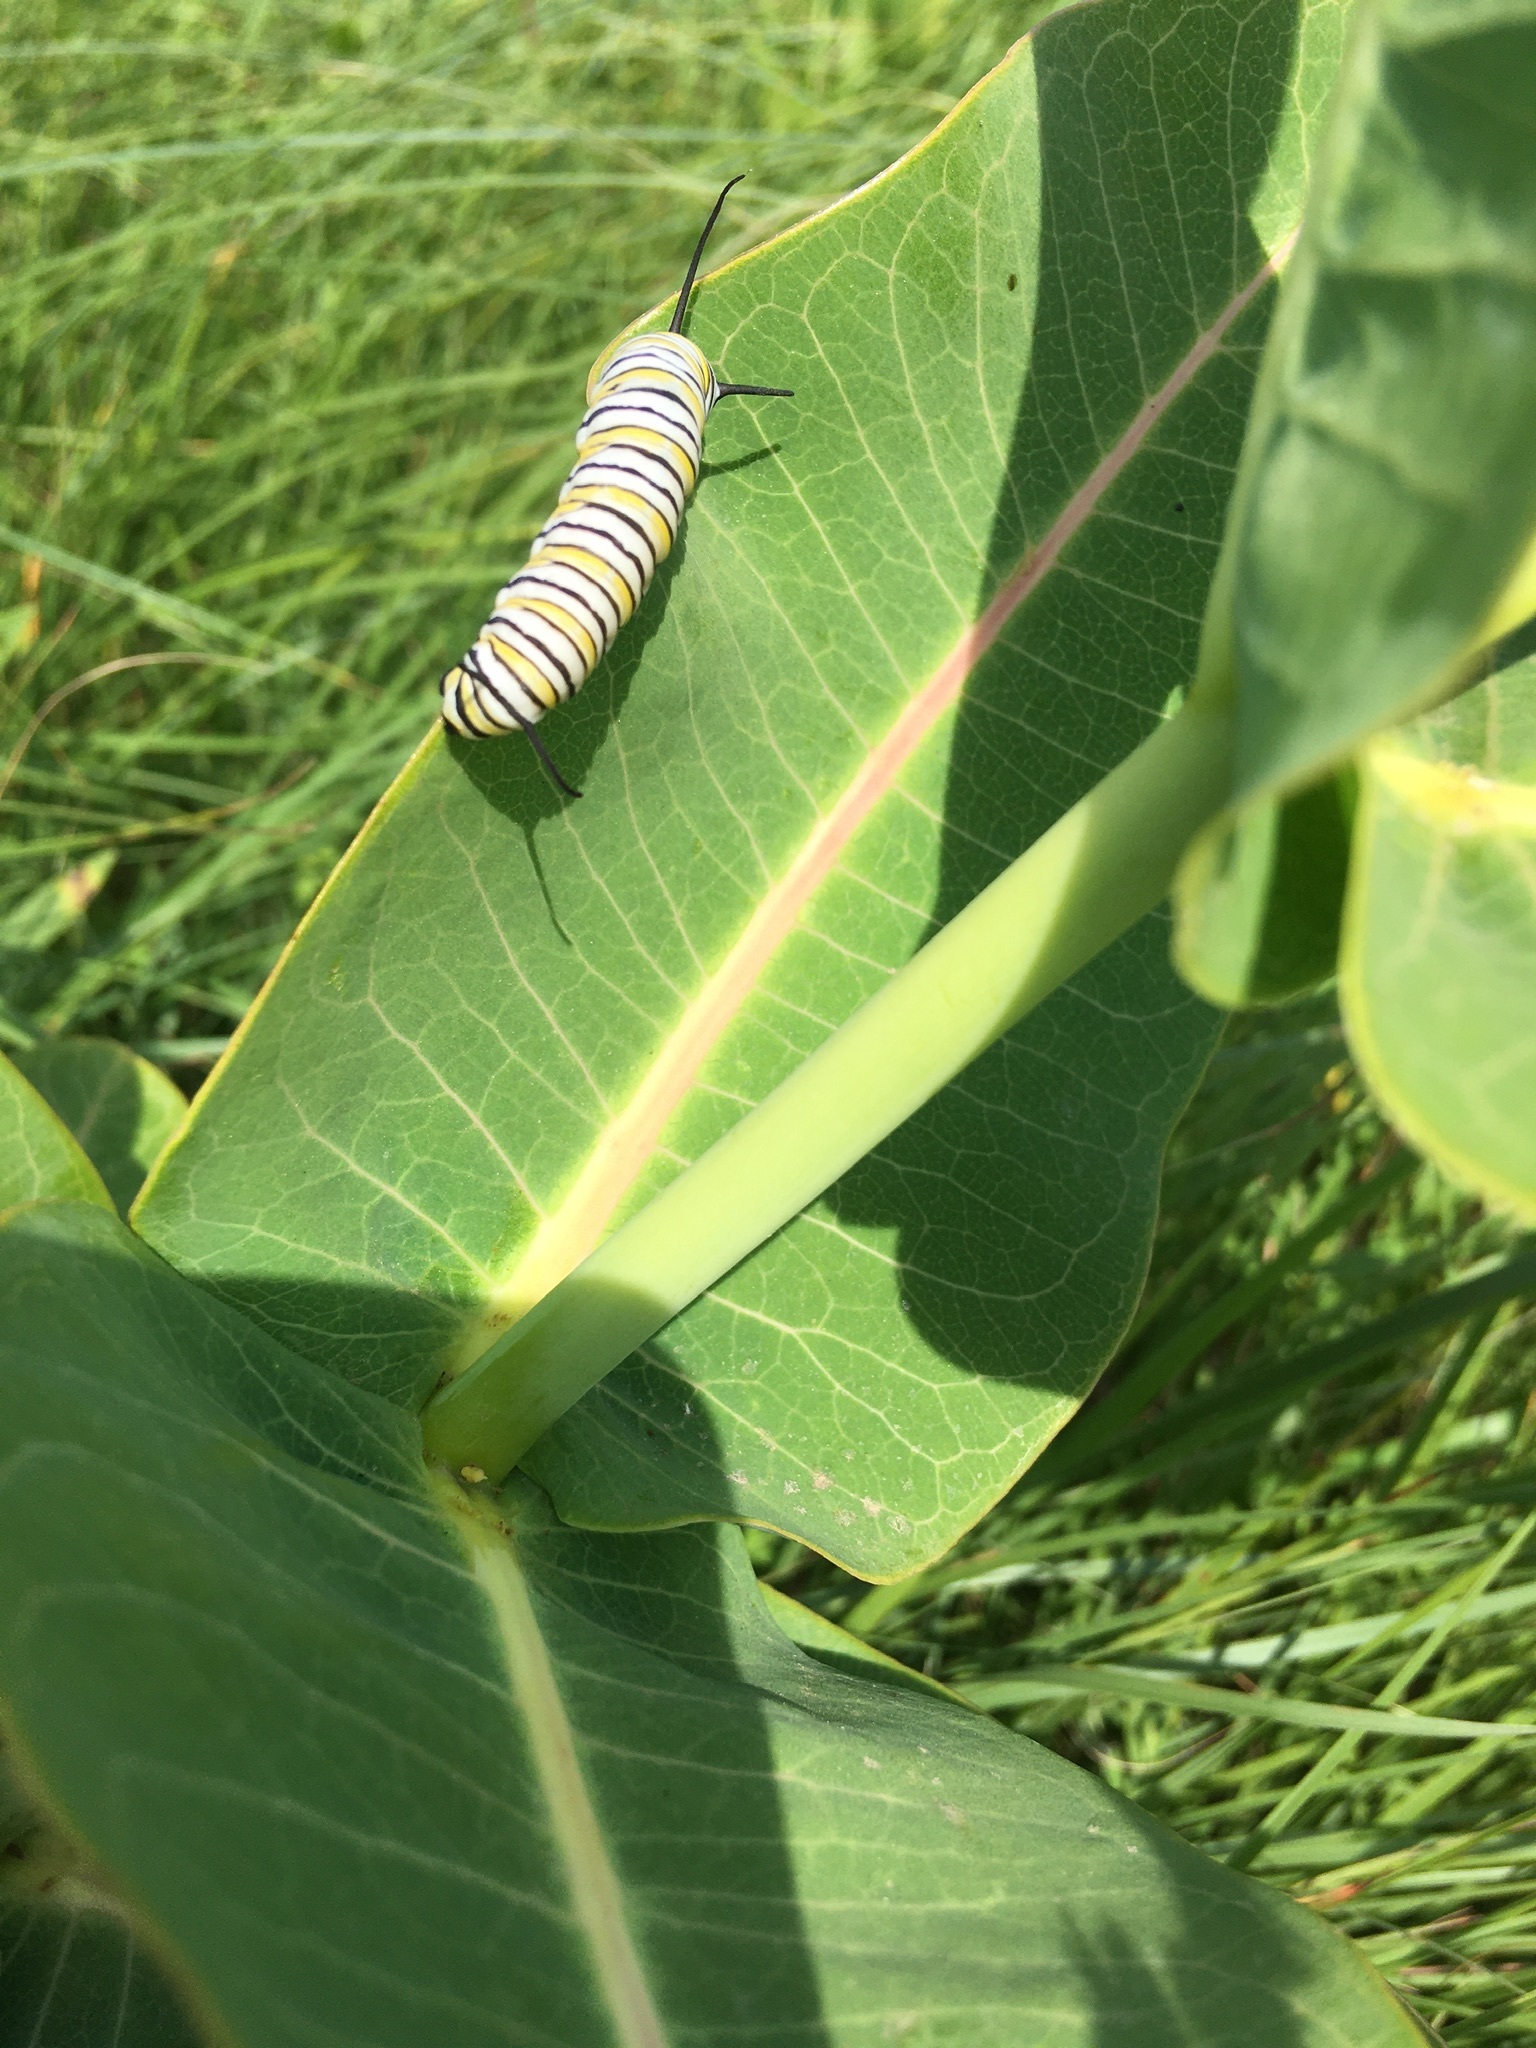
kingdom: Animalia
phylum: Arthropoda
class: Insecta
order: Lepidoptera
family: Nymphalidae
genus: Danaus
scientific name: Danaus plexippus
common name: Monarch
